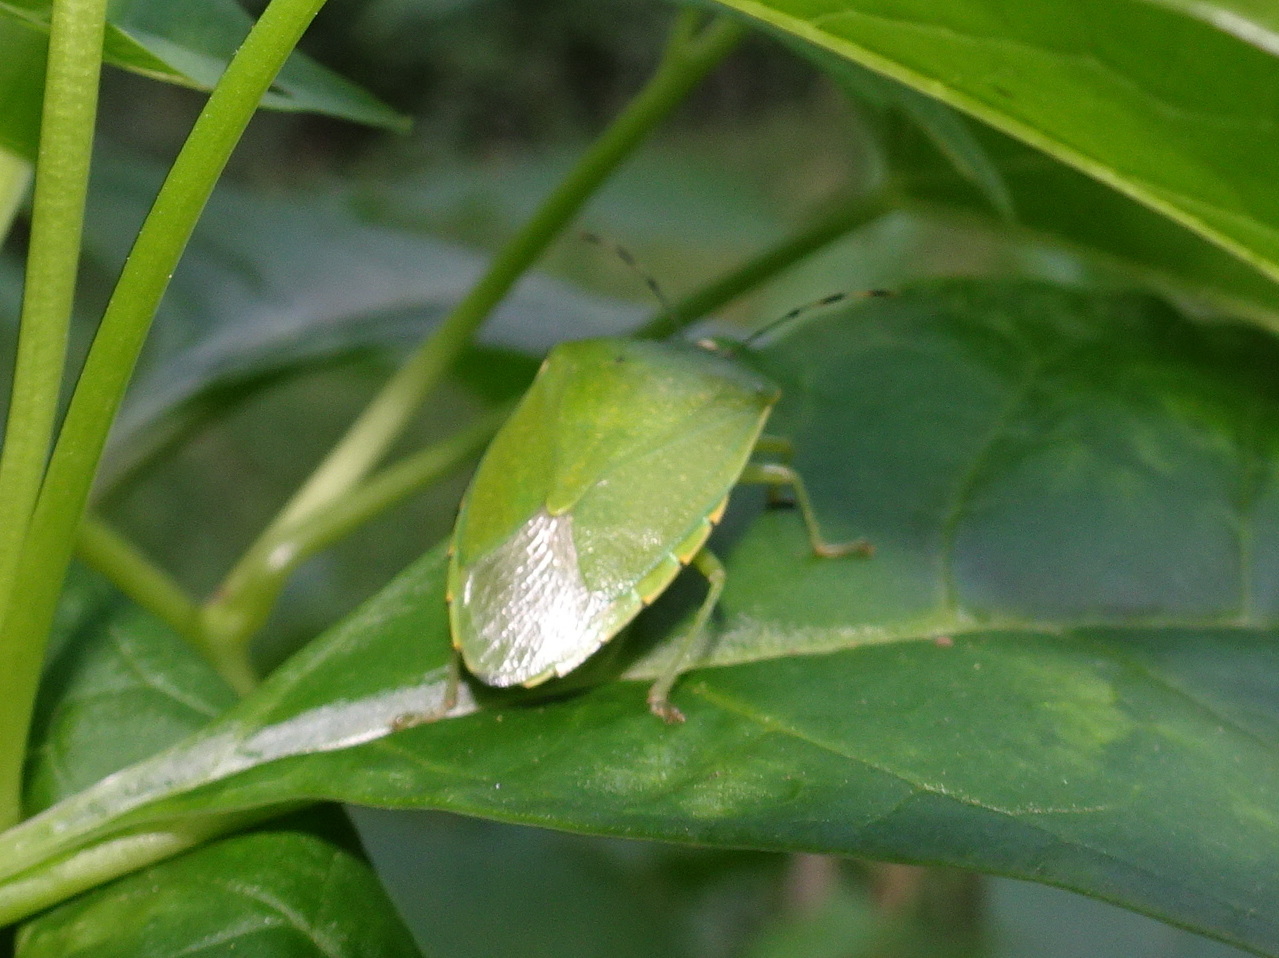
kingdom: Animalia
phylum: Arthropoda
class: Insecta
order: Hemiptera
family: Pentatomidae
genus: Chinavia
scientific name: Chinavia hilaris
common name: Green stink bug
